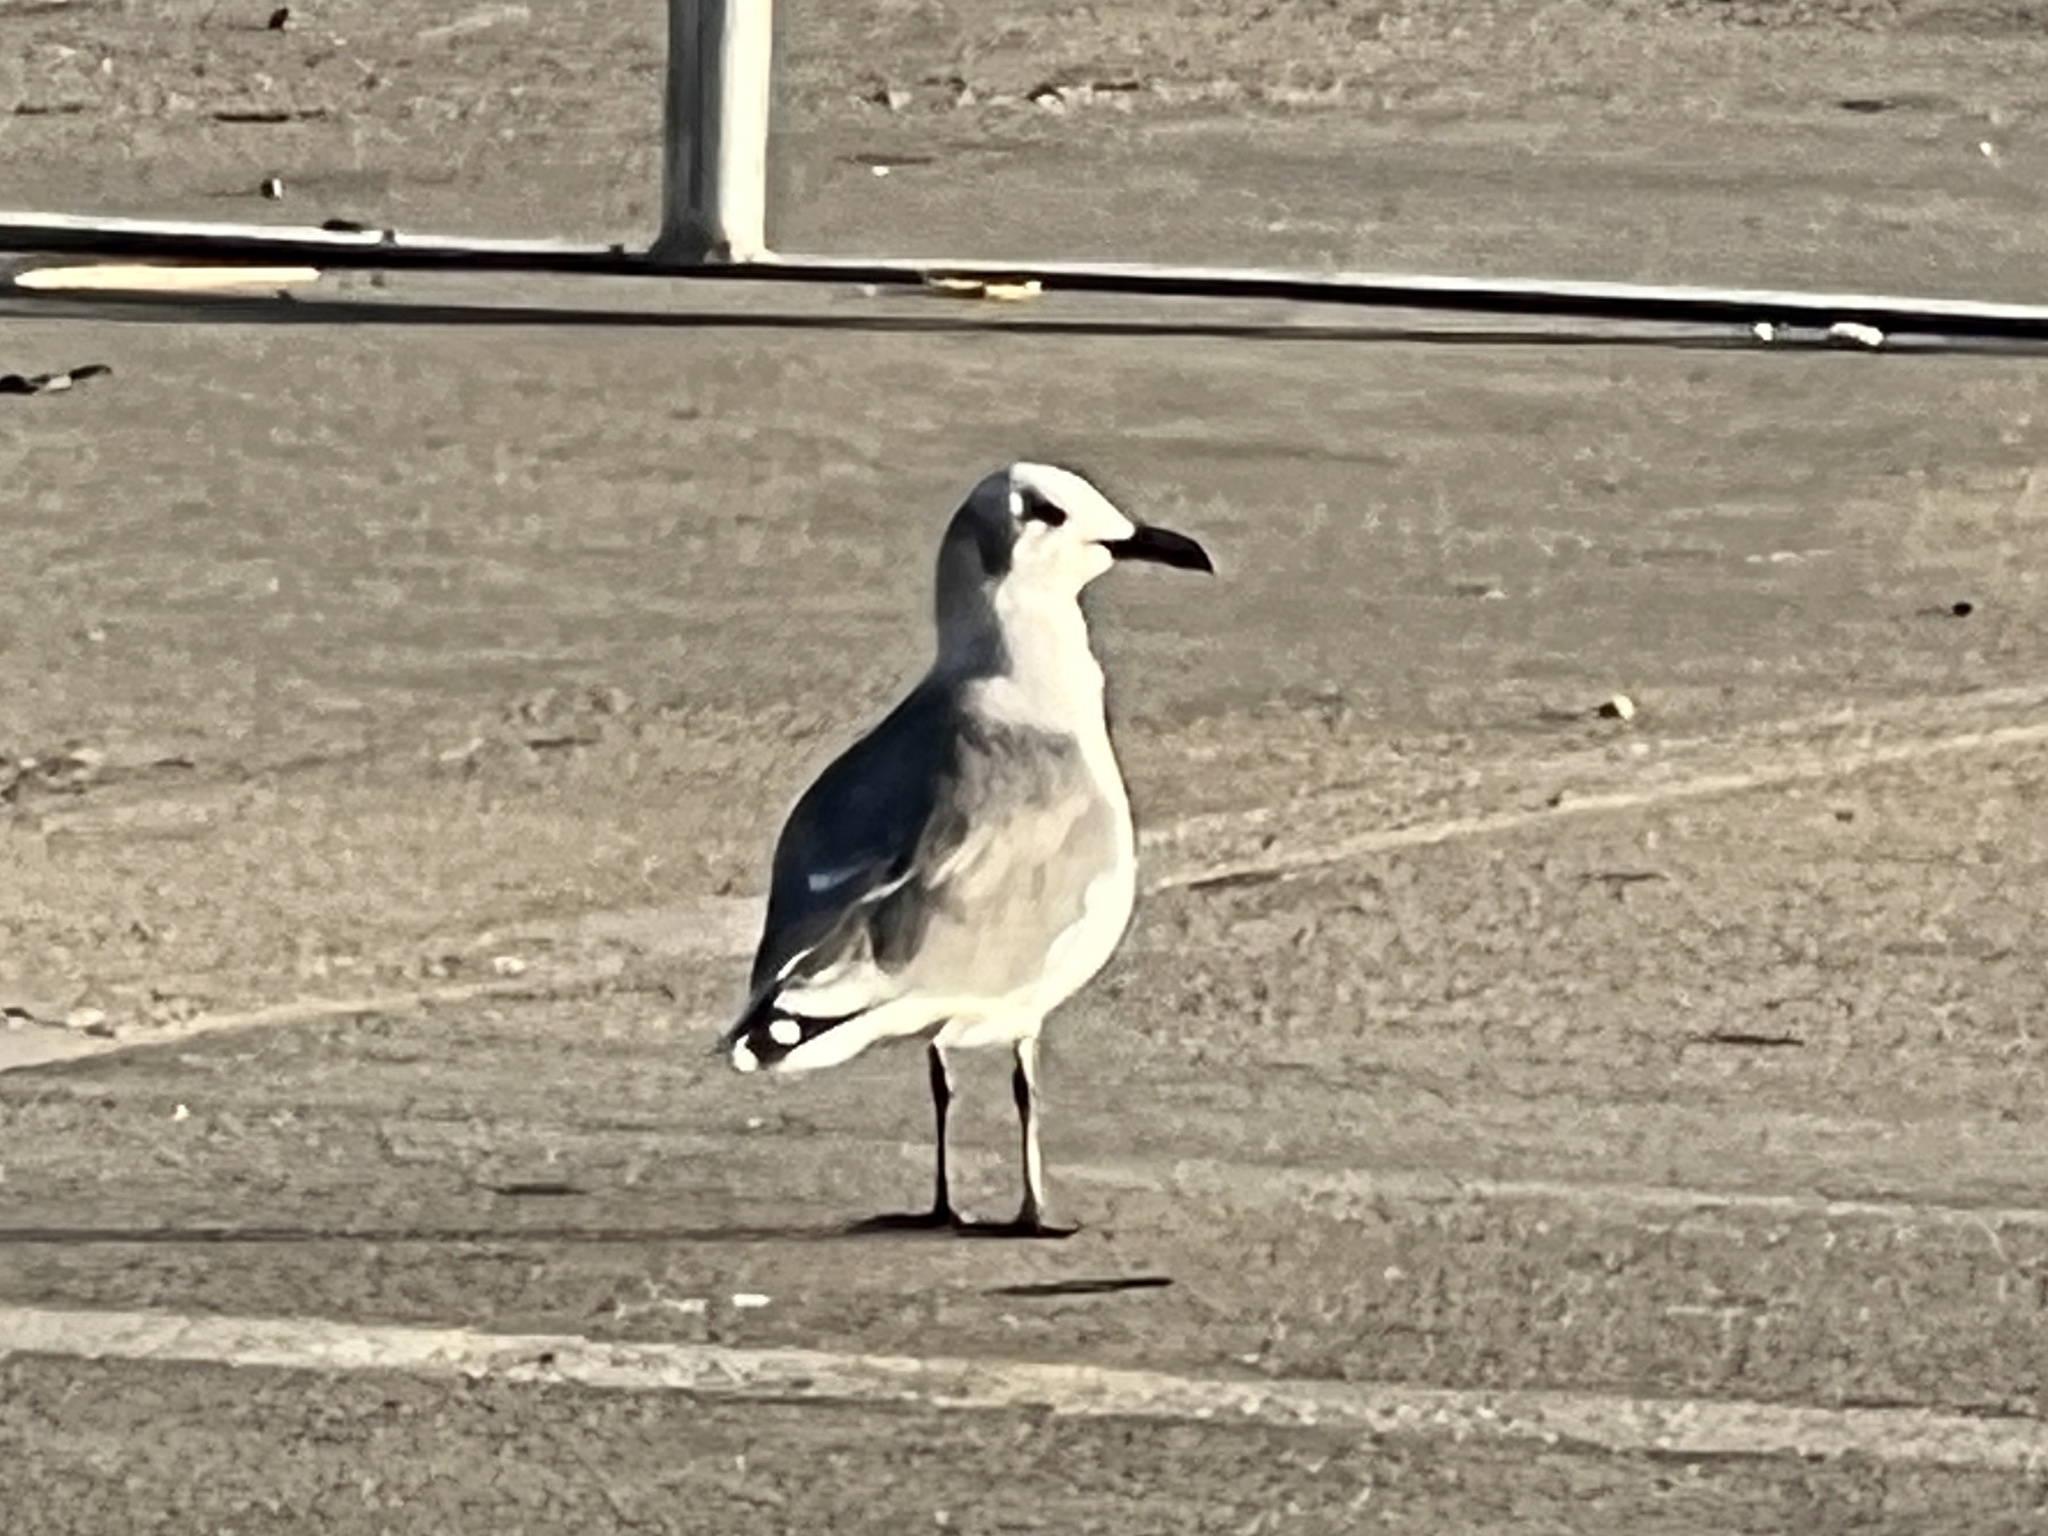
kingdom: Animalia
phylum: Chordata
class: Aves
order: Charadriiformes
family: Laridae
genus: Leucophaeus
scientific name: Leucophaeus atricilla
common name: Laughing gull
